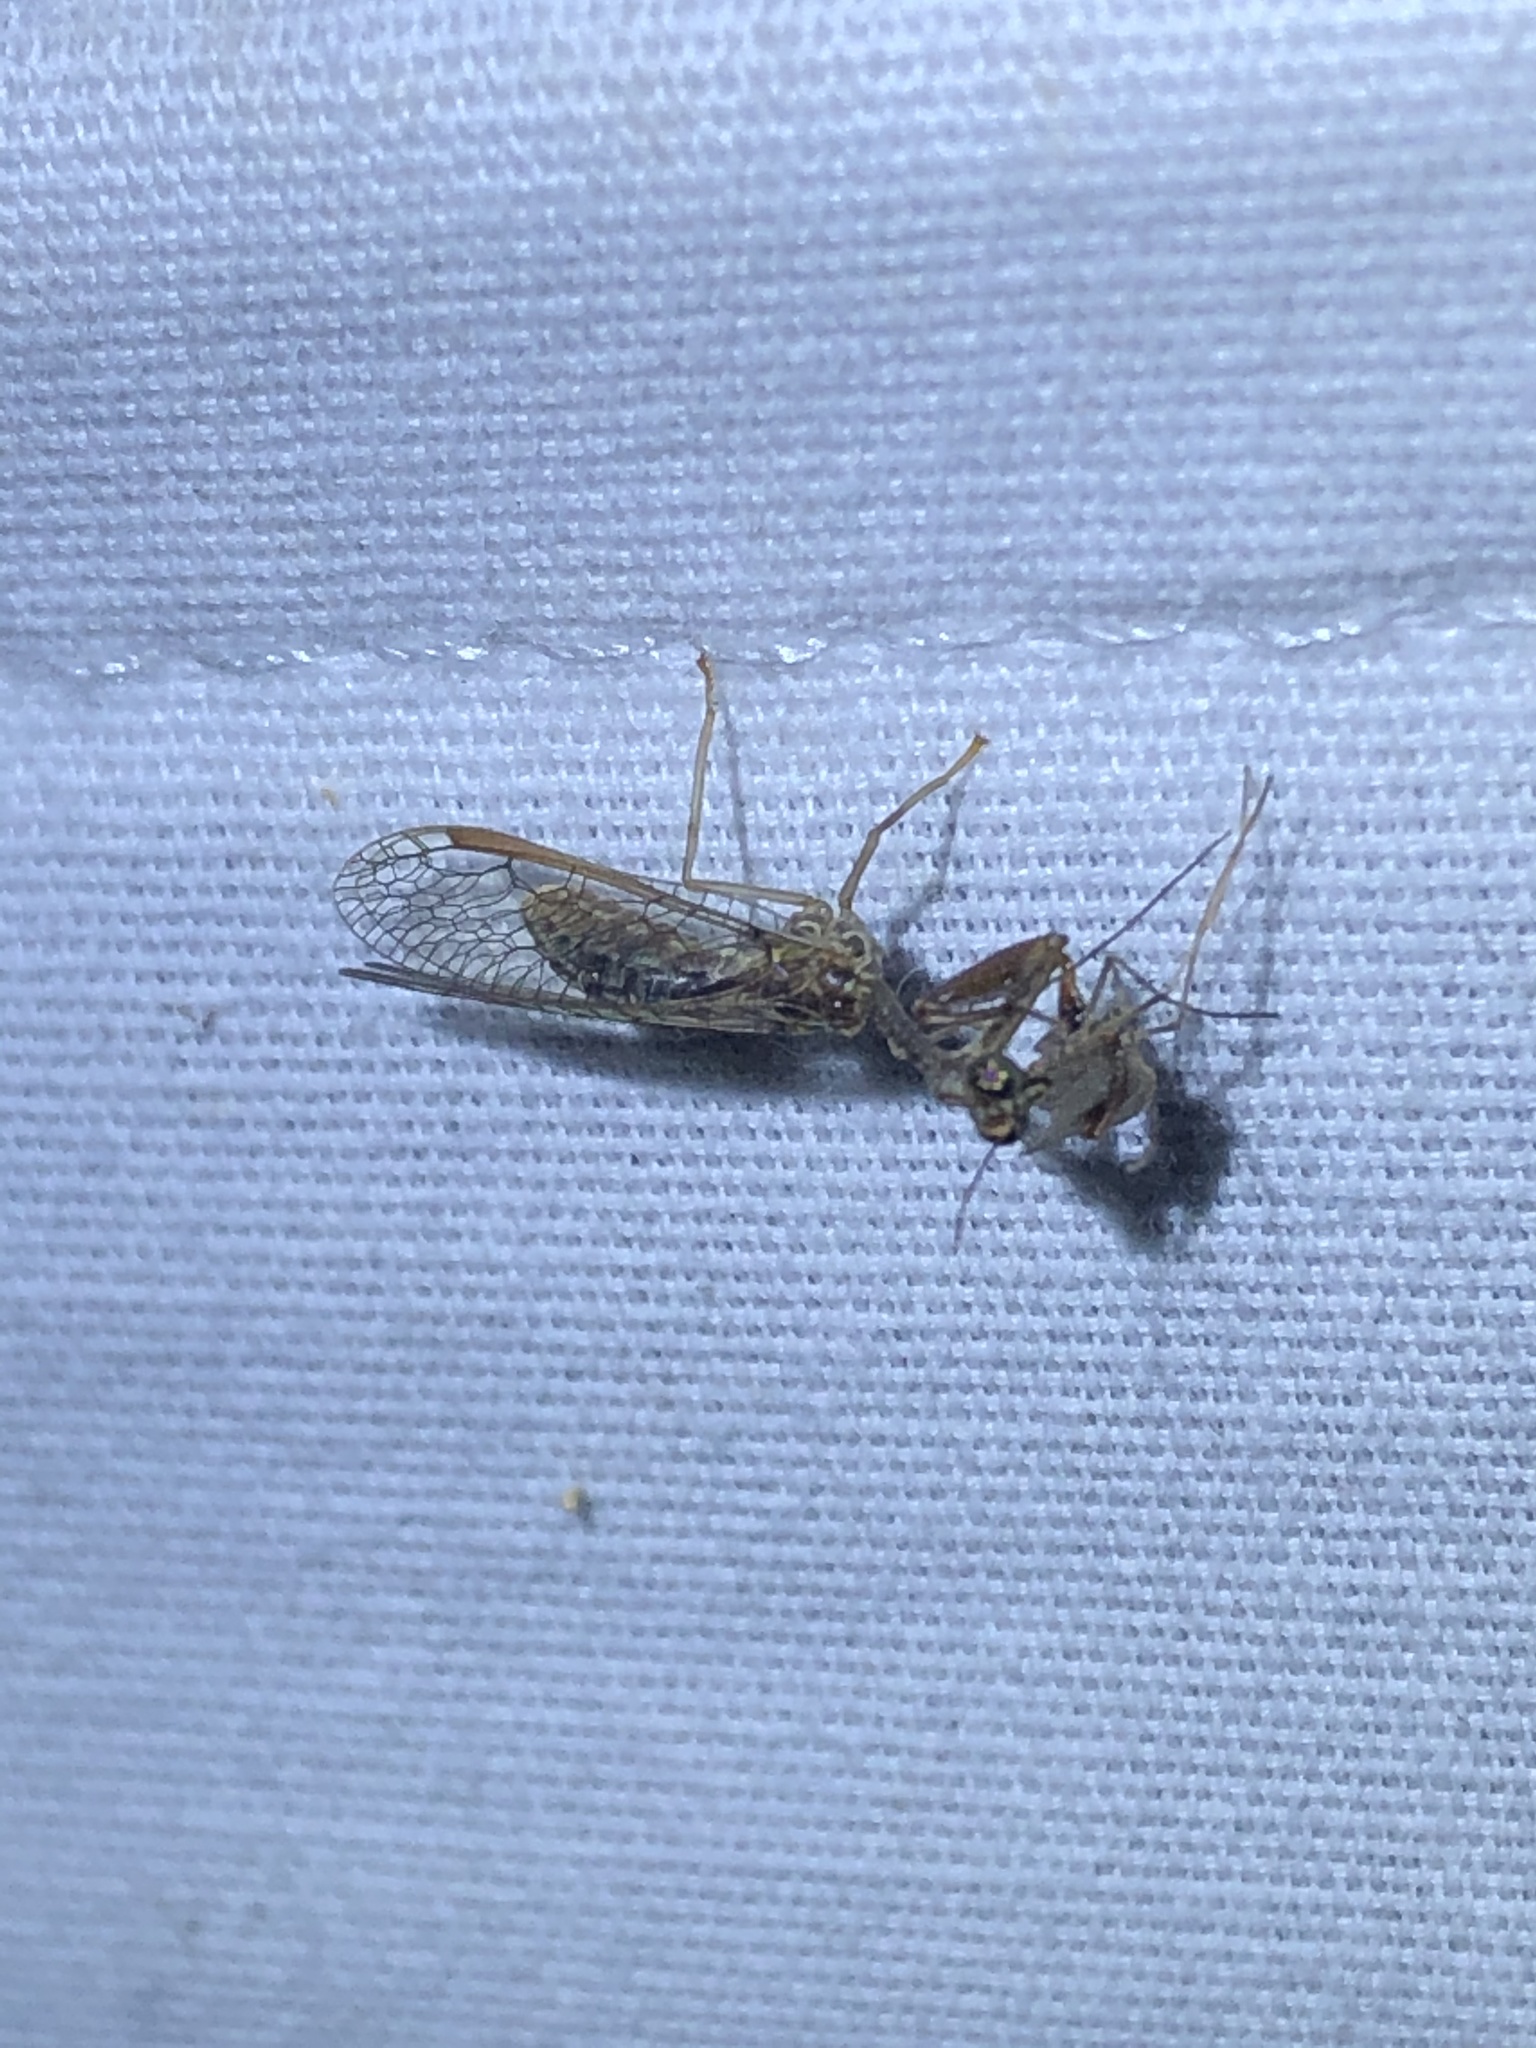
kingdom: Animalia
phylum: Arthropoda
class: Insecta
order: Neuroptera
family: Mantispidae
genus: Dicromantispa
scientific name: Dicromantispa sayi
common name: Say's mantidfly
